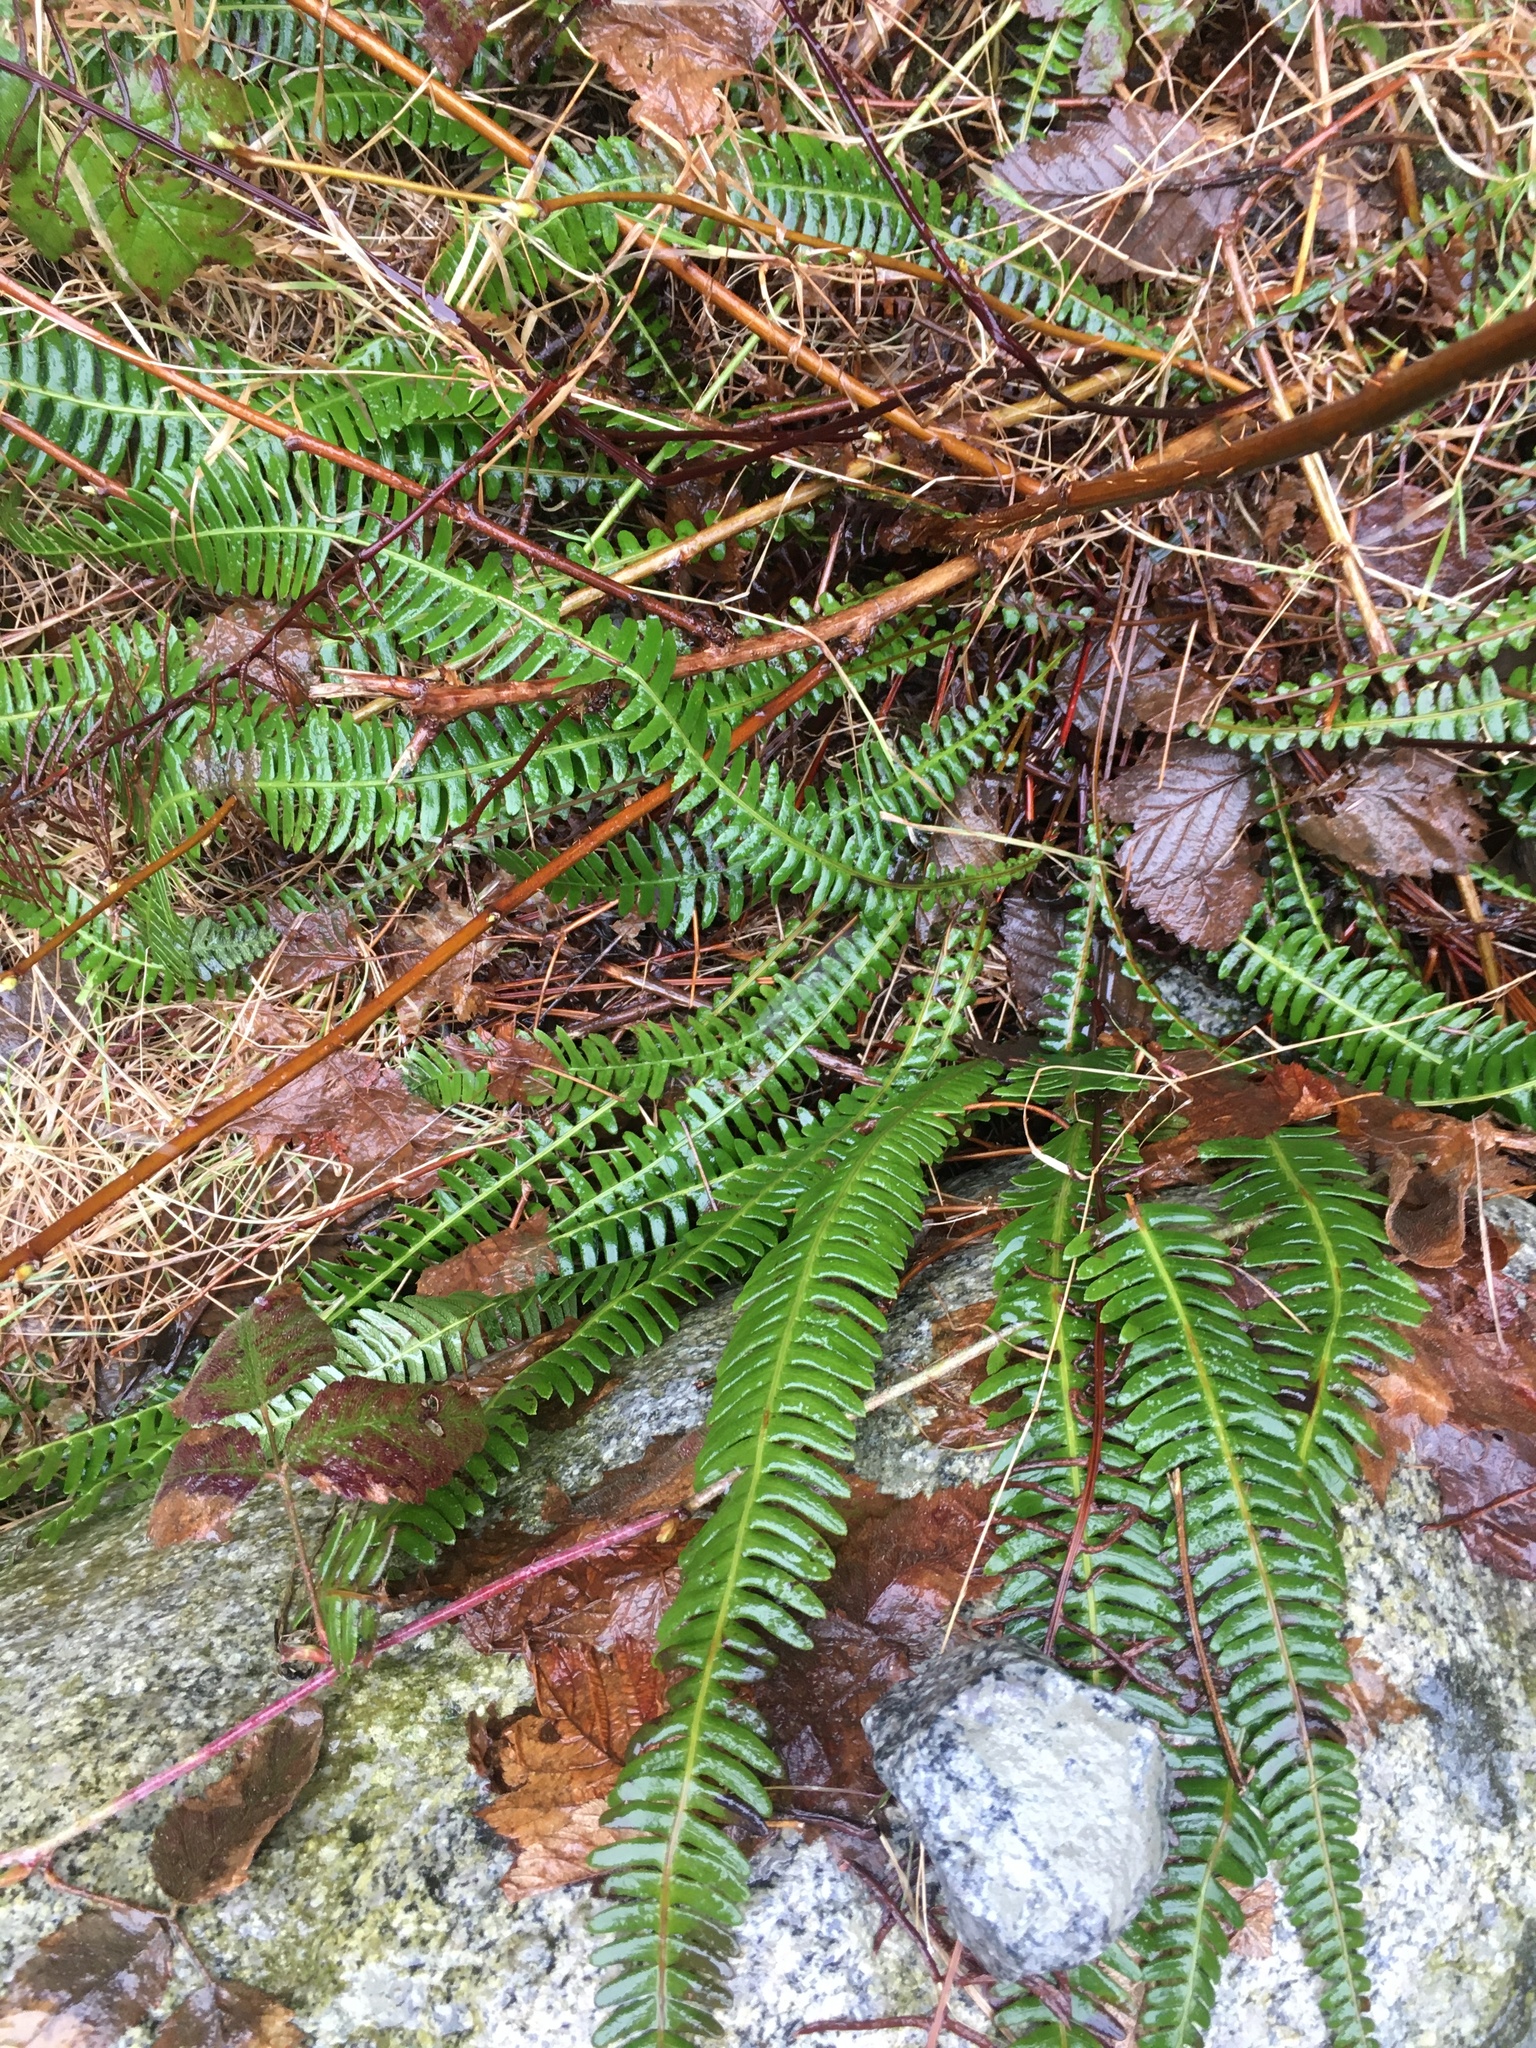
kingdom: Plantae
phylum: Tracheophyta
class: Polypodiopsida
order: Polypodiales
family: Blechnaceae
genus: Struthiopteris
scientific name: Struthiopteris spicant
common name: Deer fern
